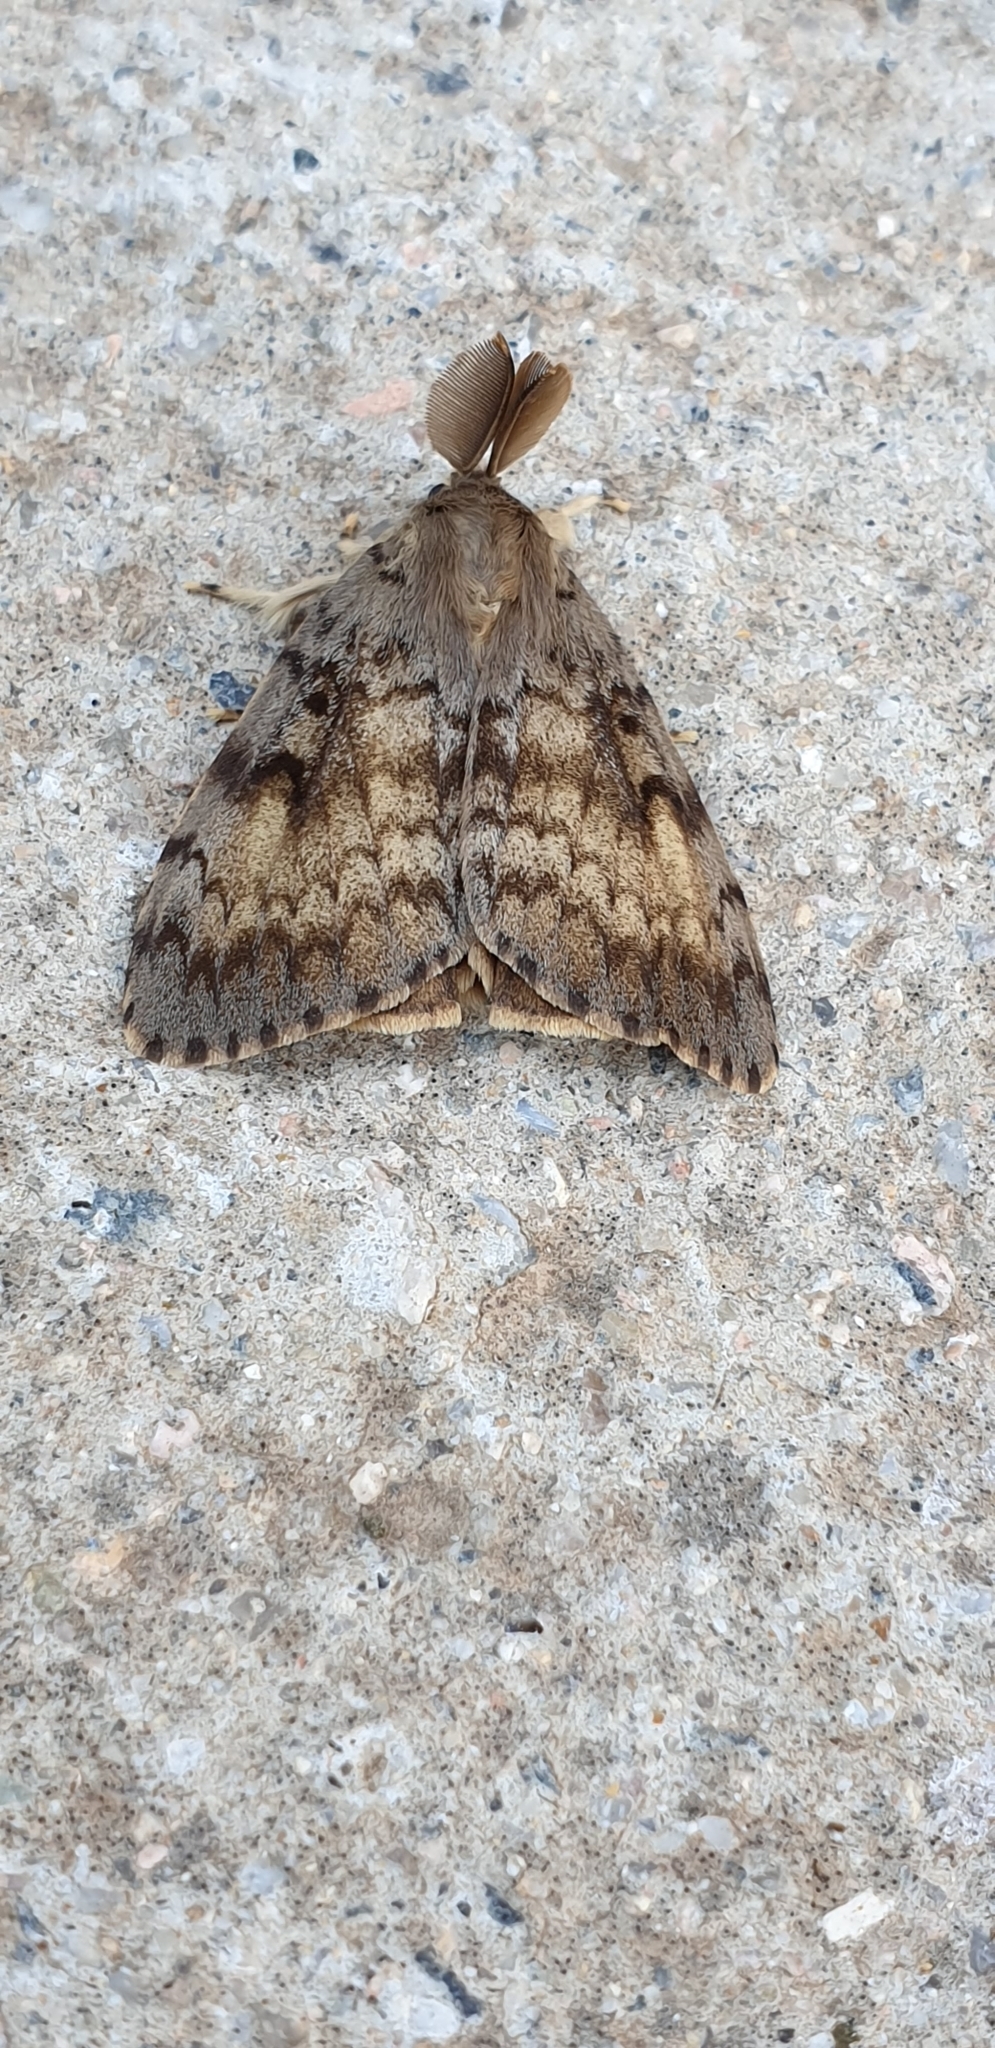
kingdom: Animalia
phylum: Arthropoda
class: Insecta
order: Lepidoptera
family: Erebidae
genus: Lymantria
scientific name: Lymantria dispar
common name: Gypsy moth
